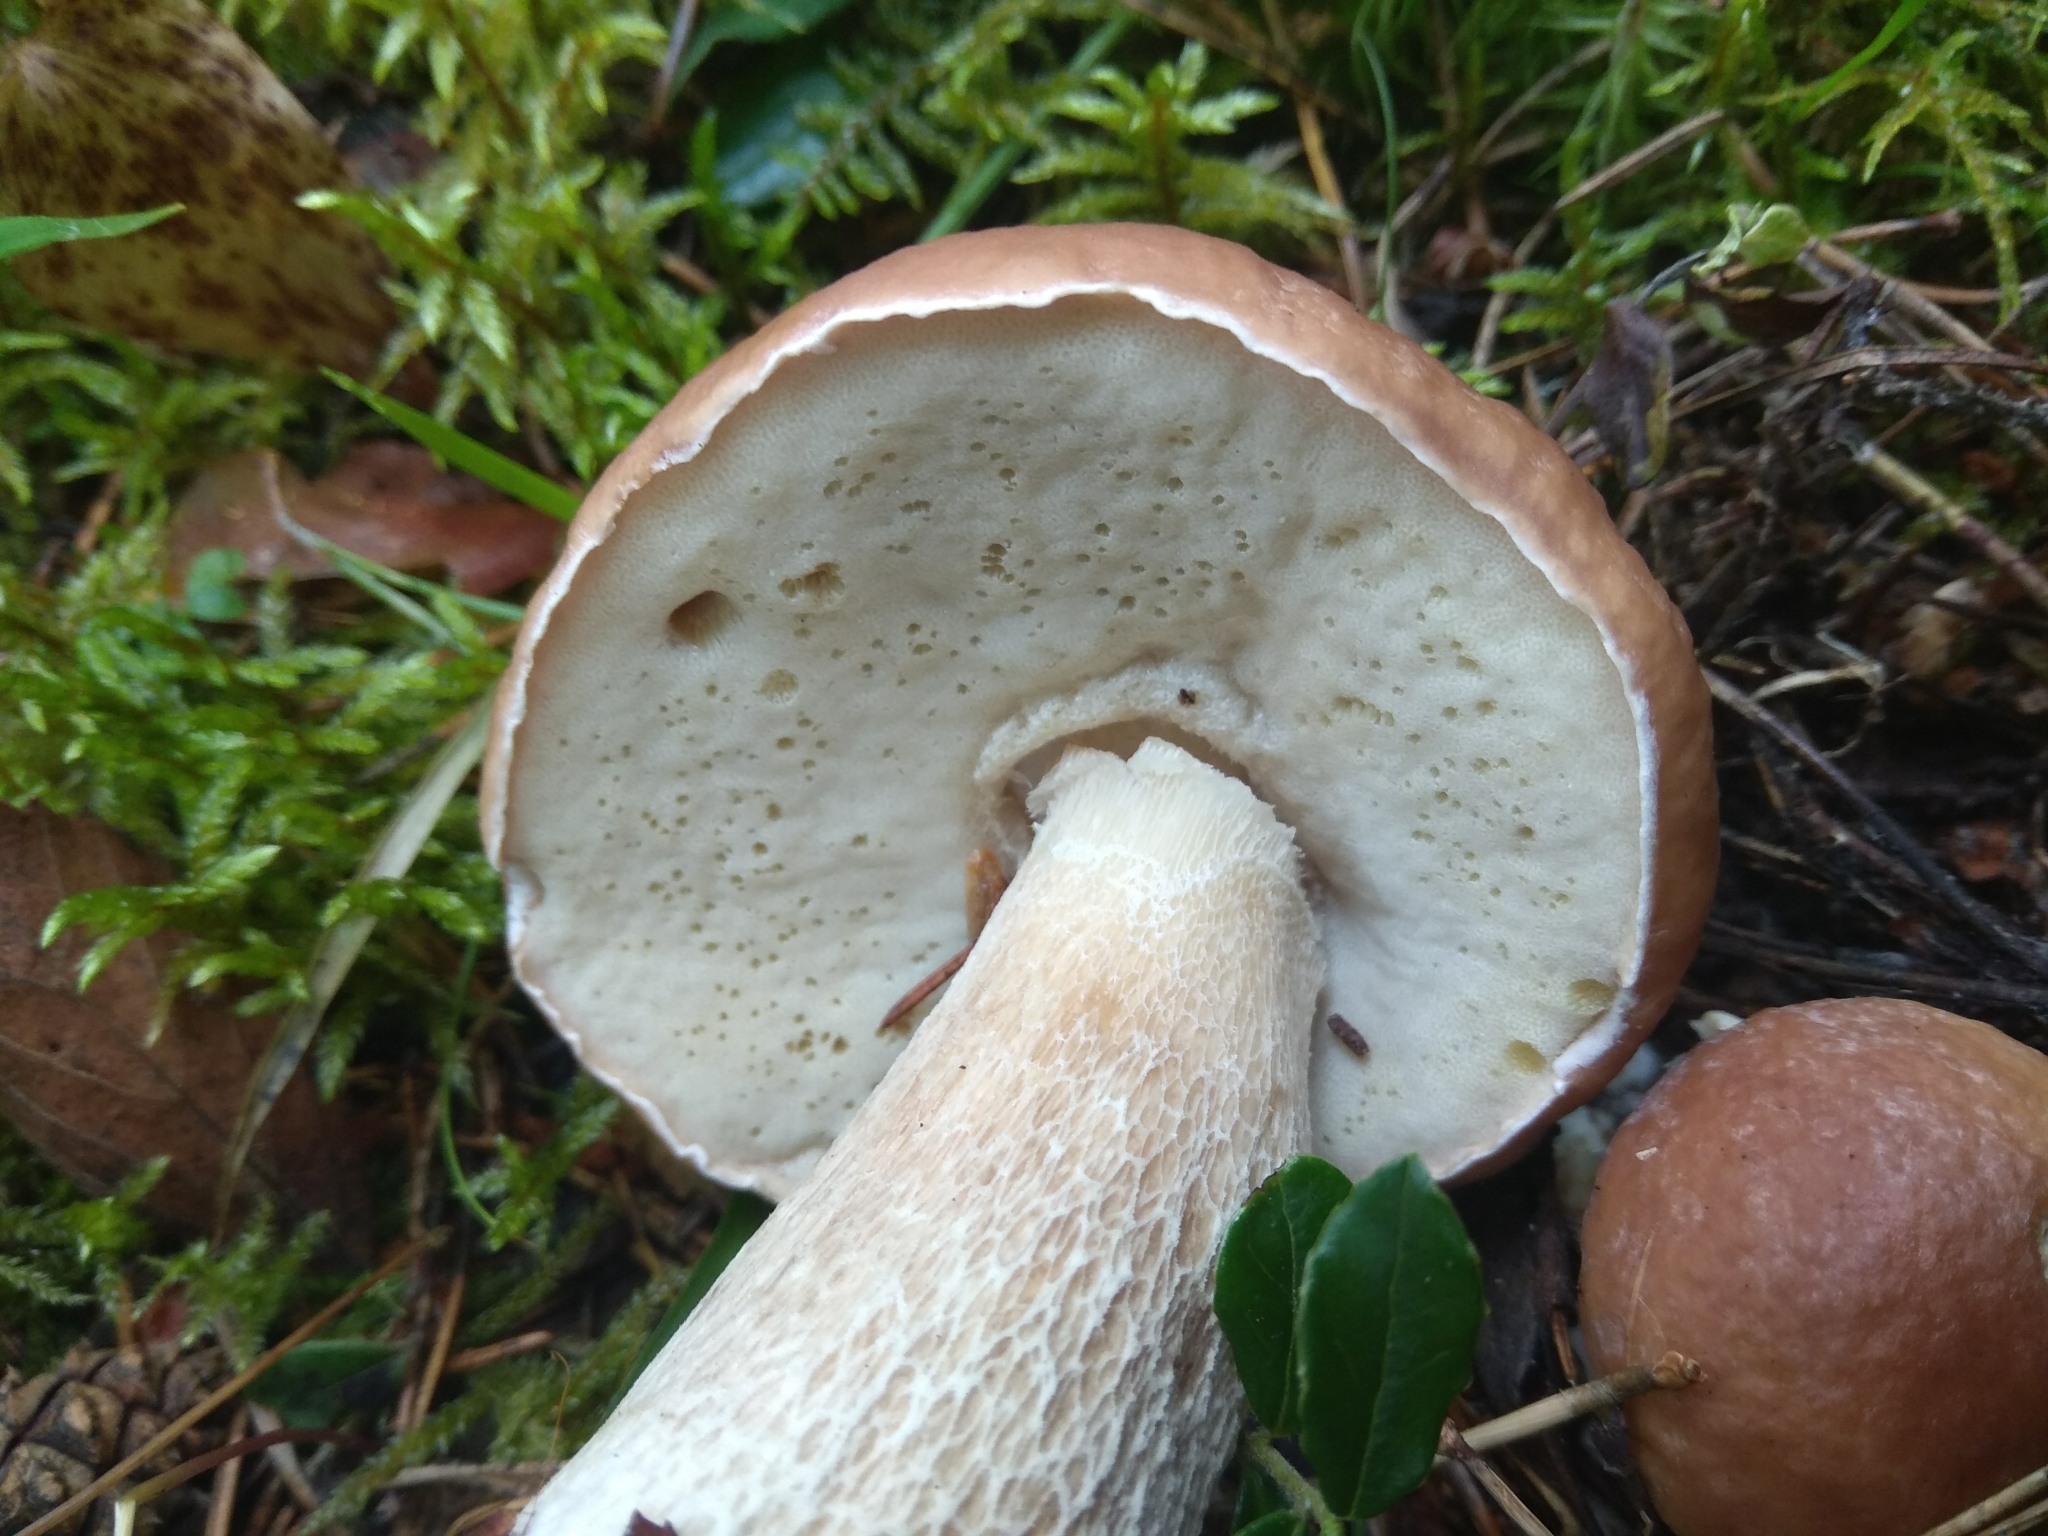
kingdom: Fungi
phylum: Basidiomycota
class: Agaricomycetes
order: Boletales
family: Boletaceae
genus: Boletus
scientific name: Boletus edulis
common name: Cep
